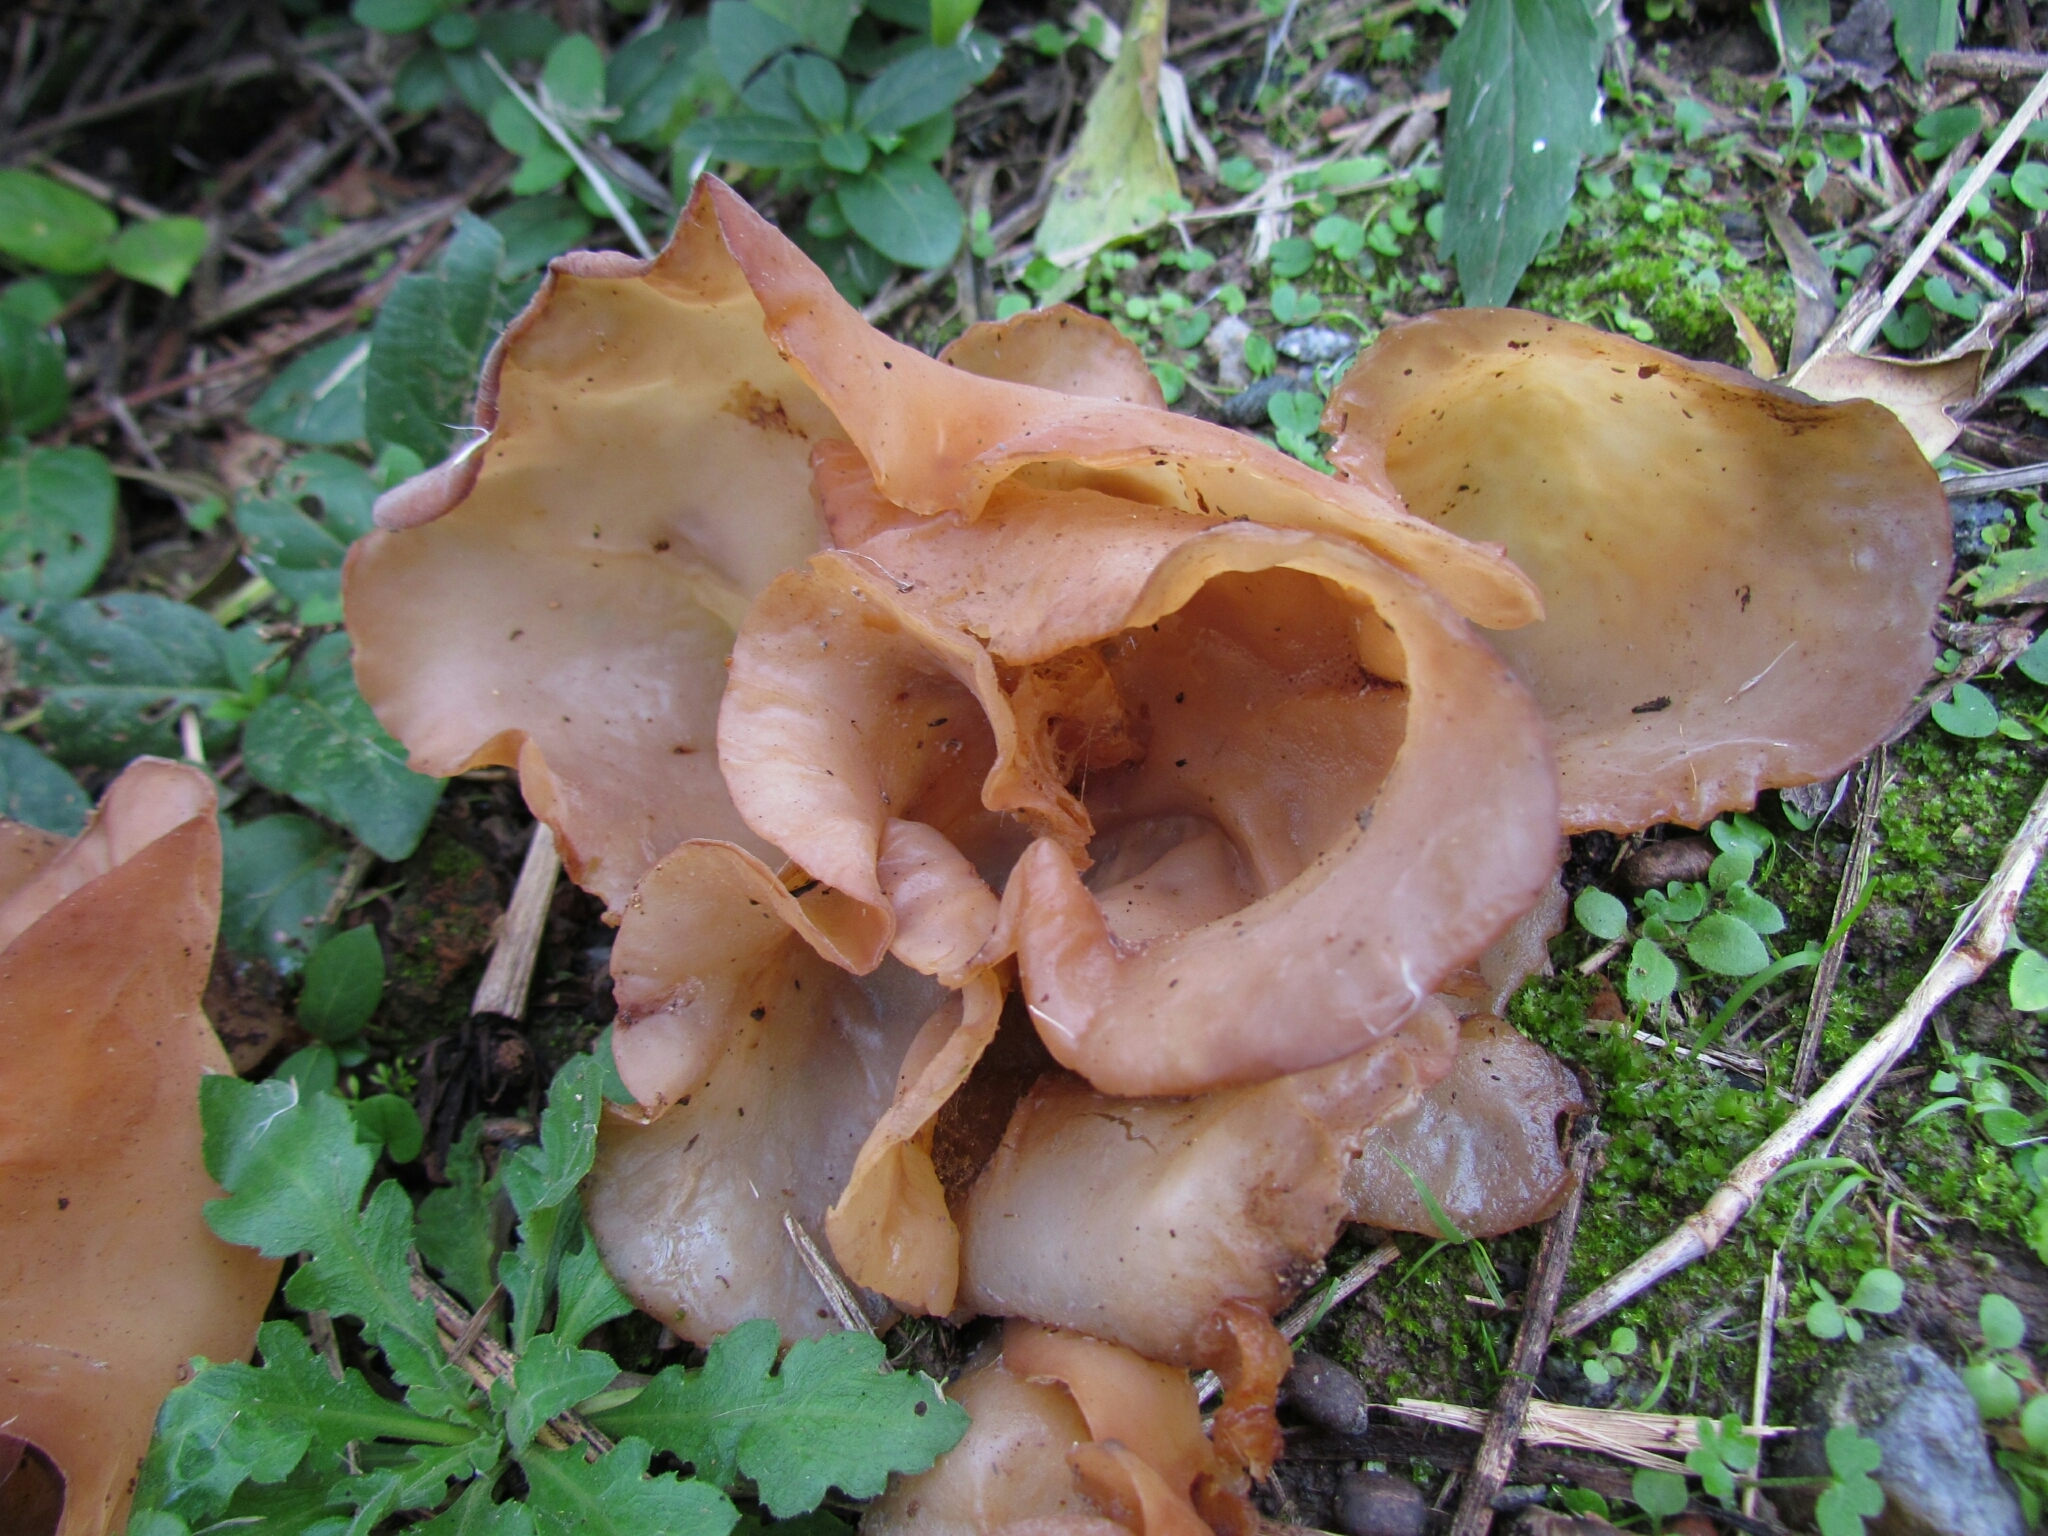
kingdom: Fungi
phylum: Basidiomycota
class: Agaricomycetes
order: Auriculariales
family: Auriculariaceae
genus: Auricularia
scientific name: Auricularia fuscosuccinea
